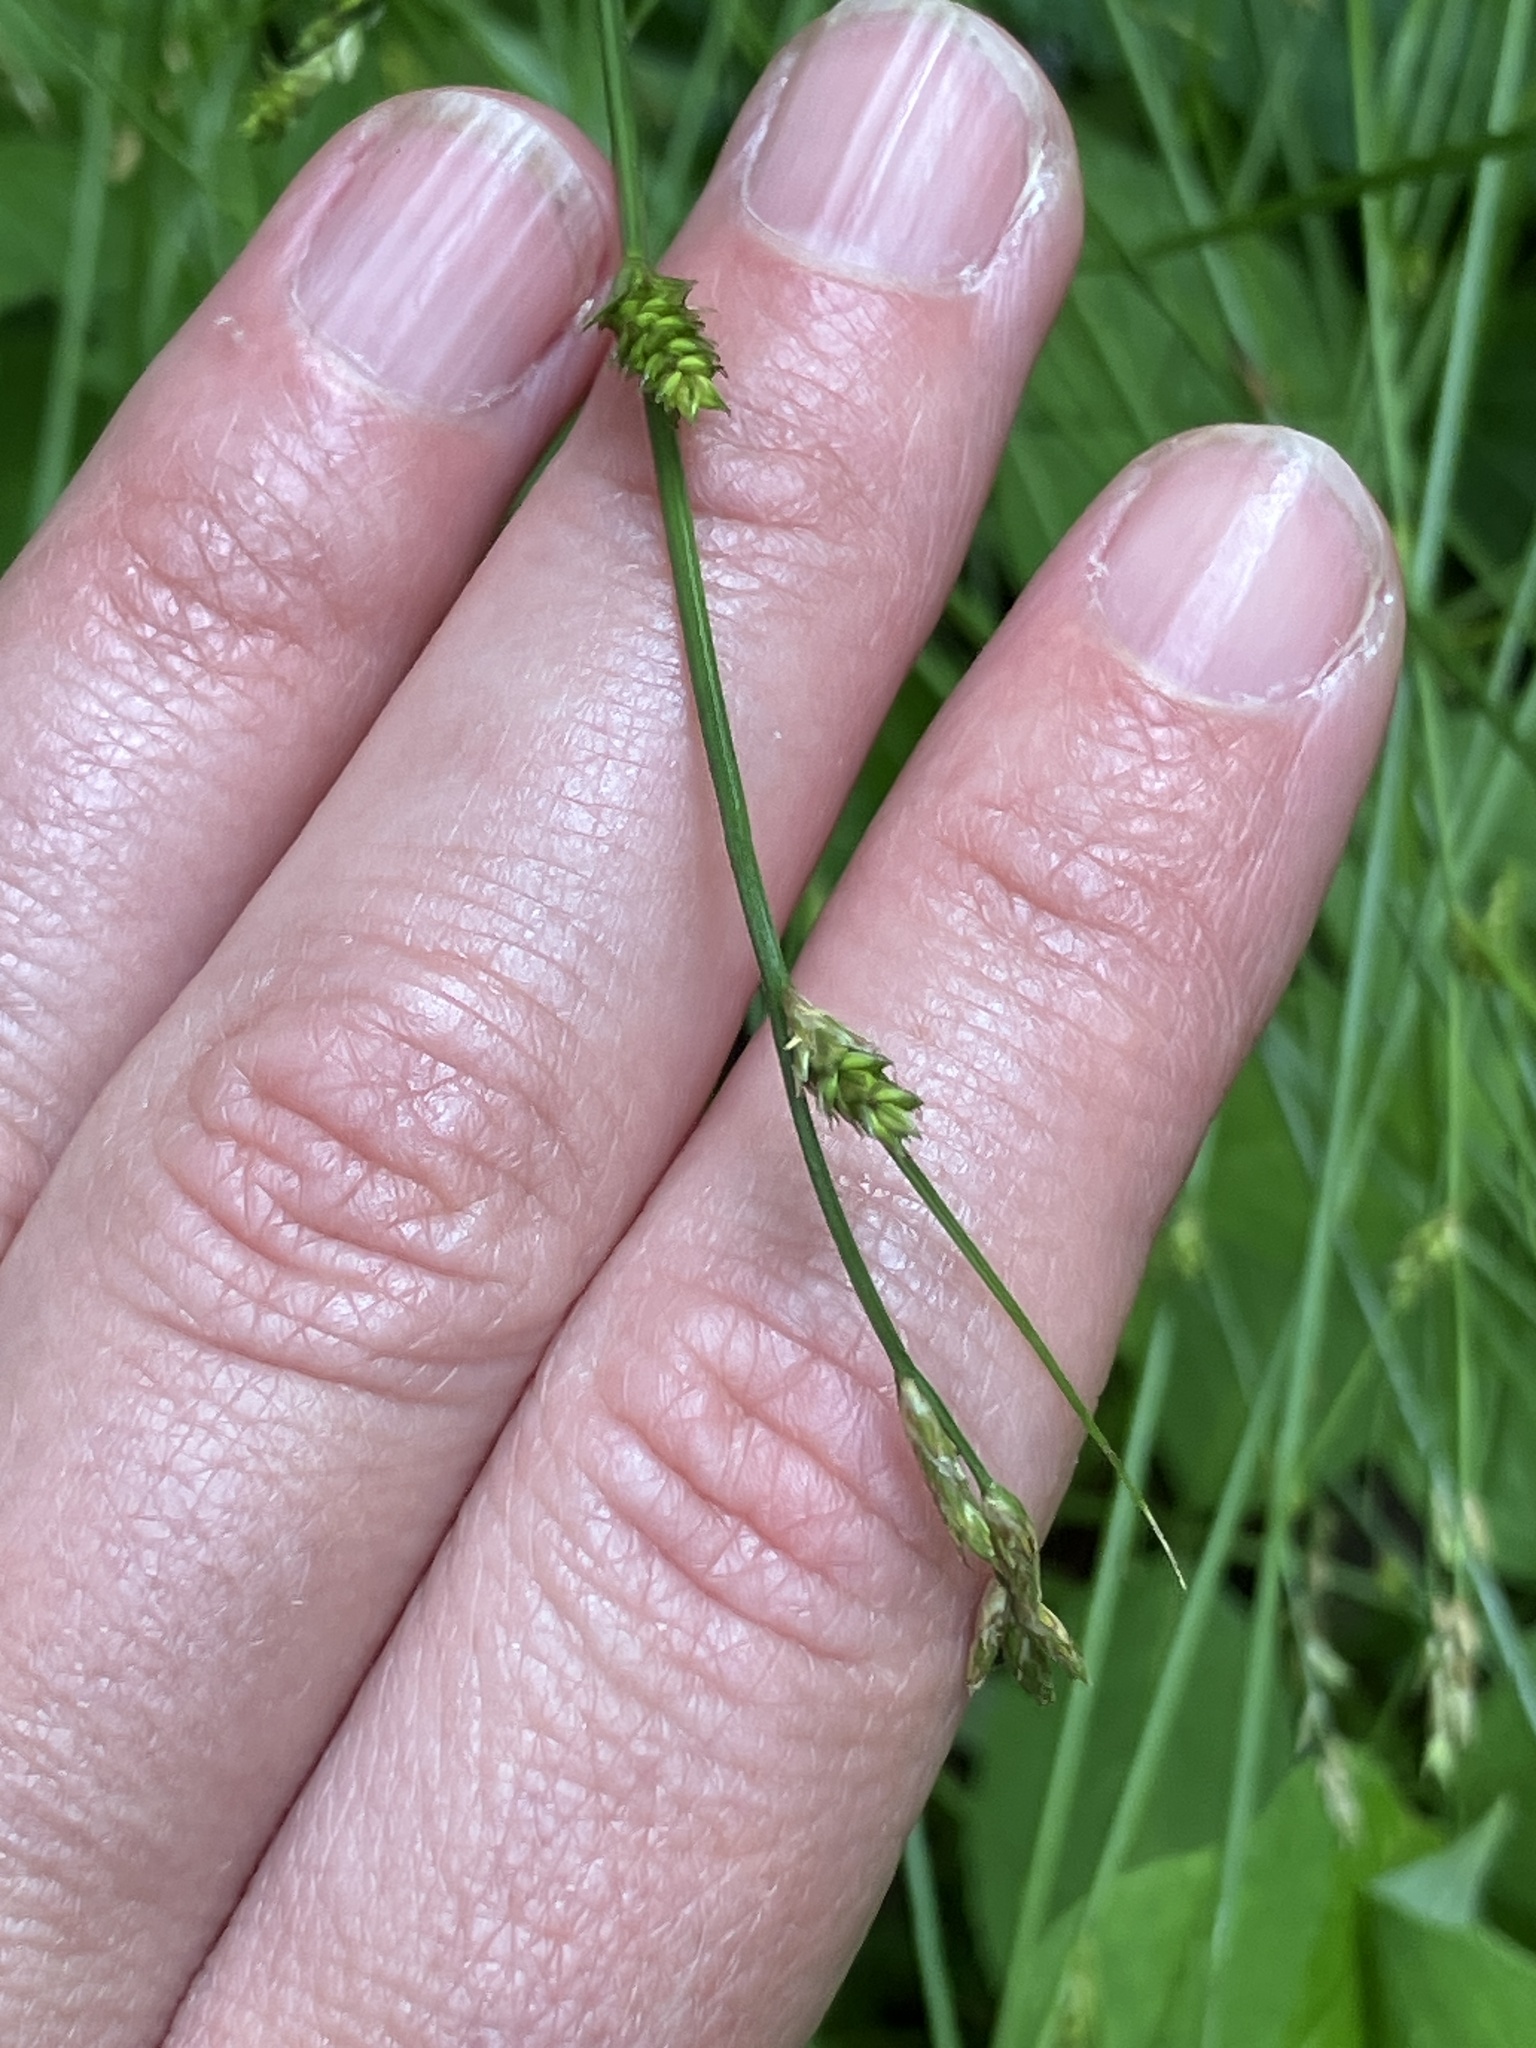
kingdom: Plantae
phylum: Tracheophyta
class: Liliopsida
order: Poales
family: Cyperaceae
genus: Carex
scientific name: Carex remota
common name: Remote sedge
